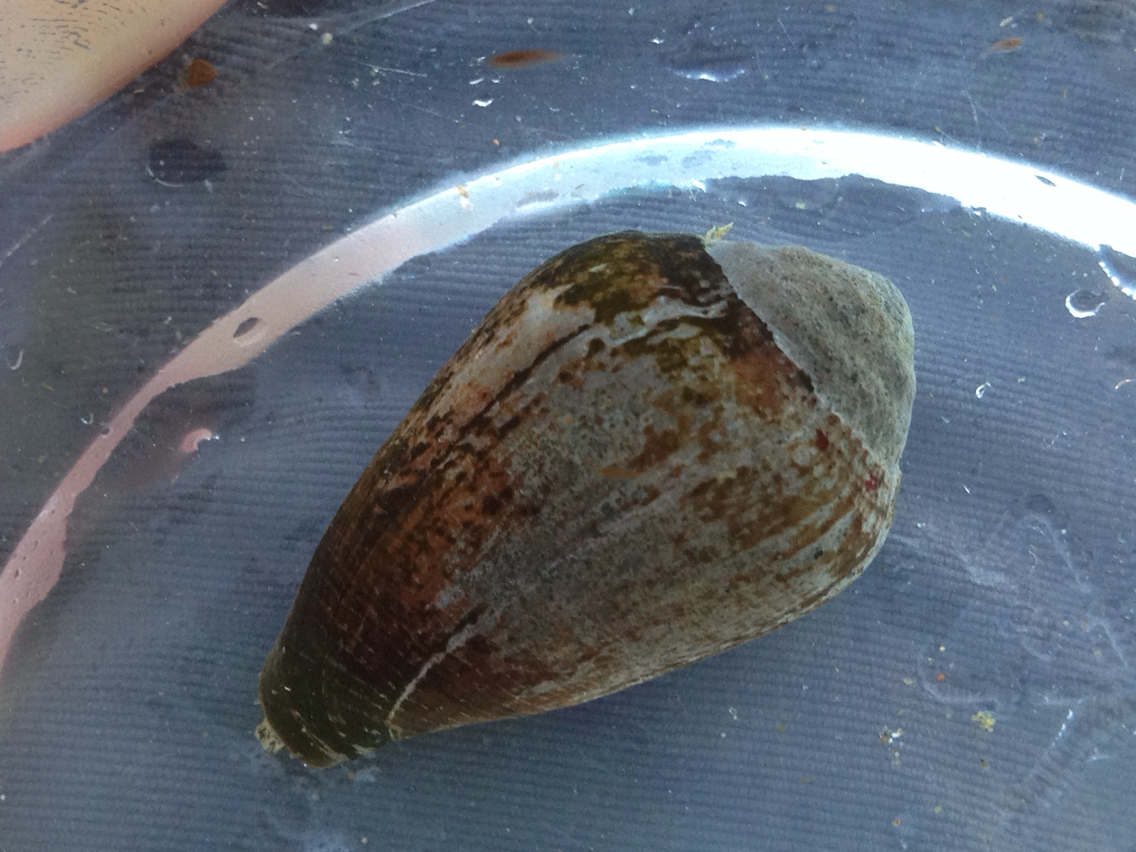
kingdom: Animalia
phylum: Mollusca
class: Gastropoda
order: Neogastropoda
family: Conidae
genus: Californiconus
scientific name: Californiconus californicus
